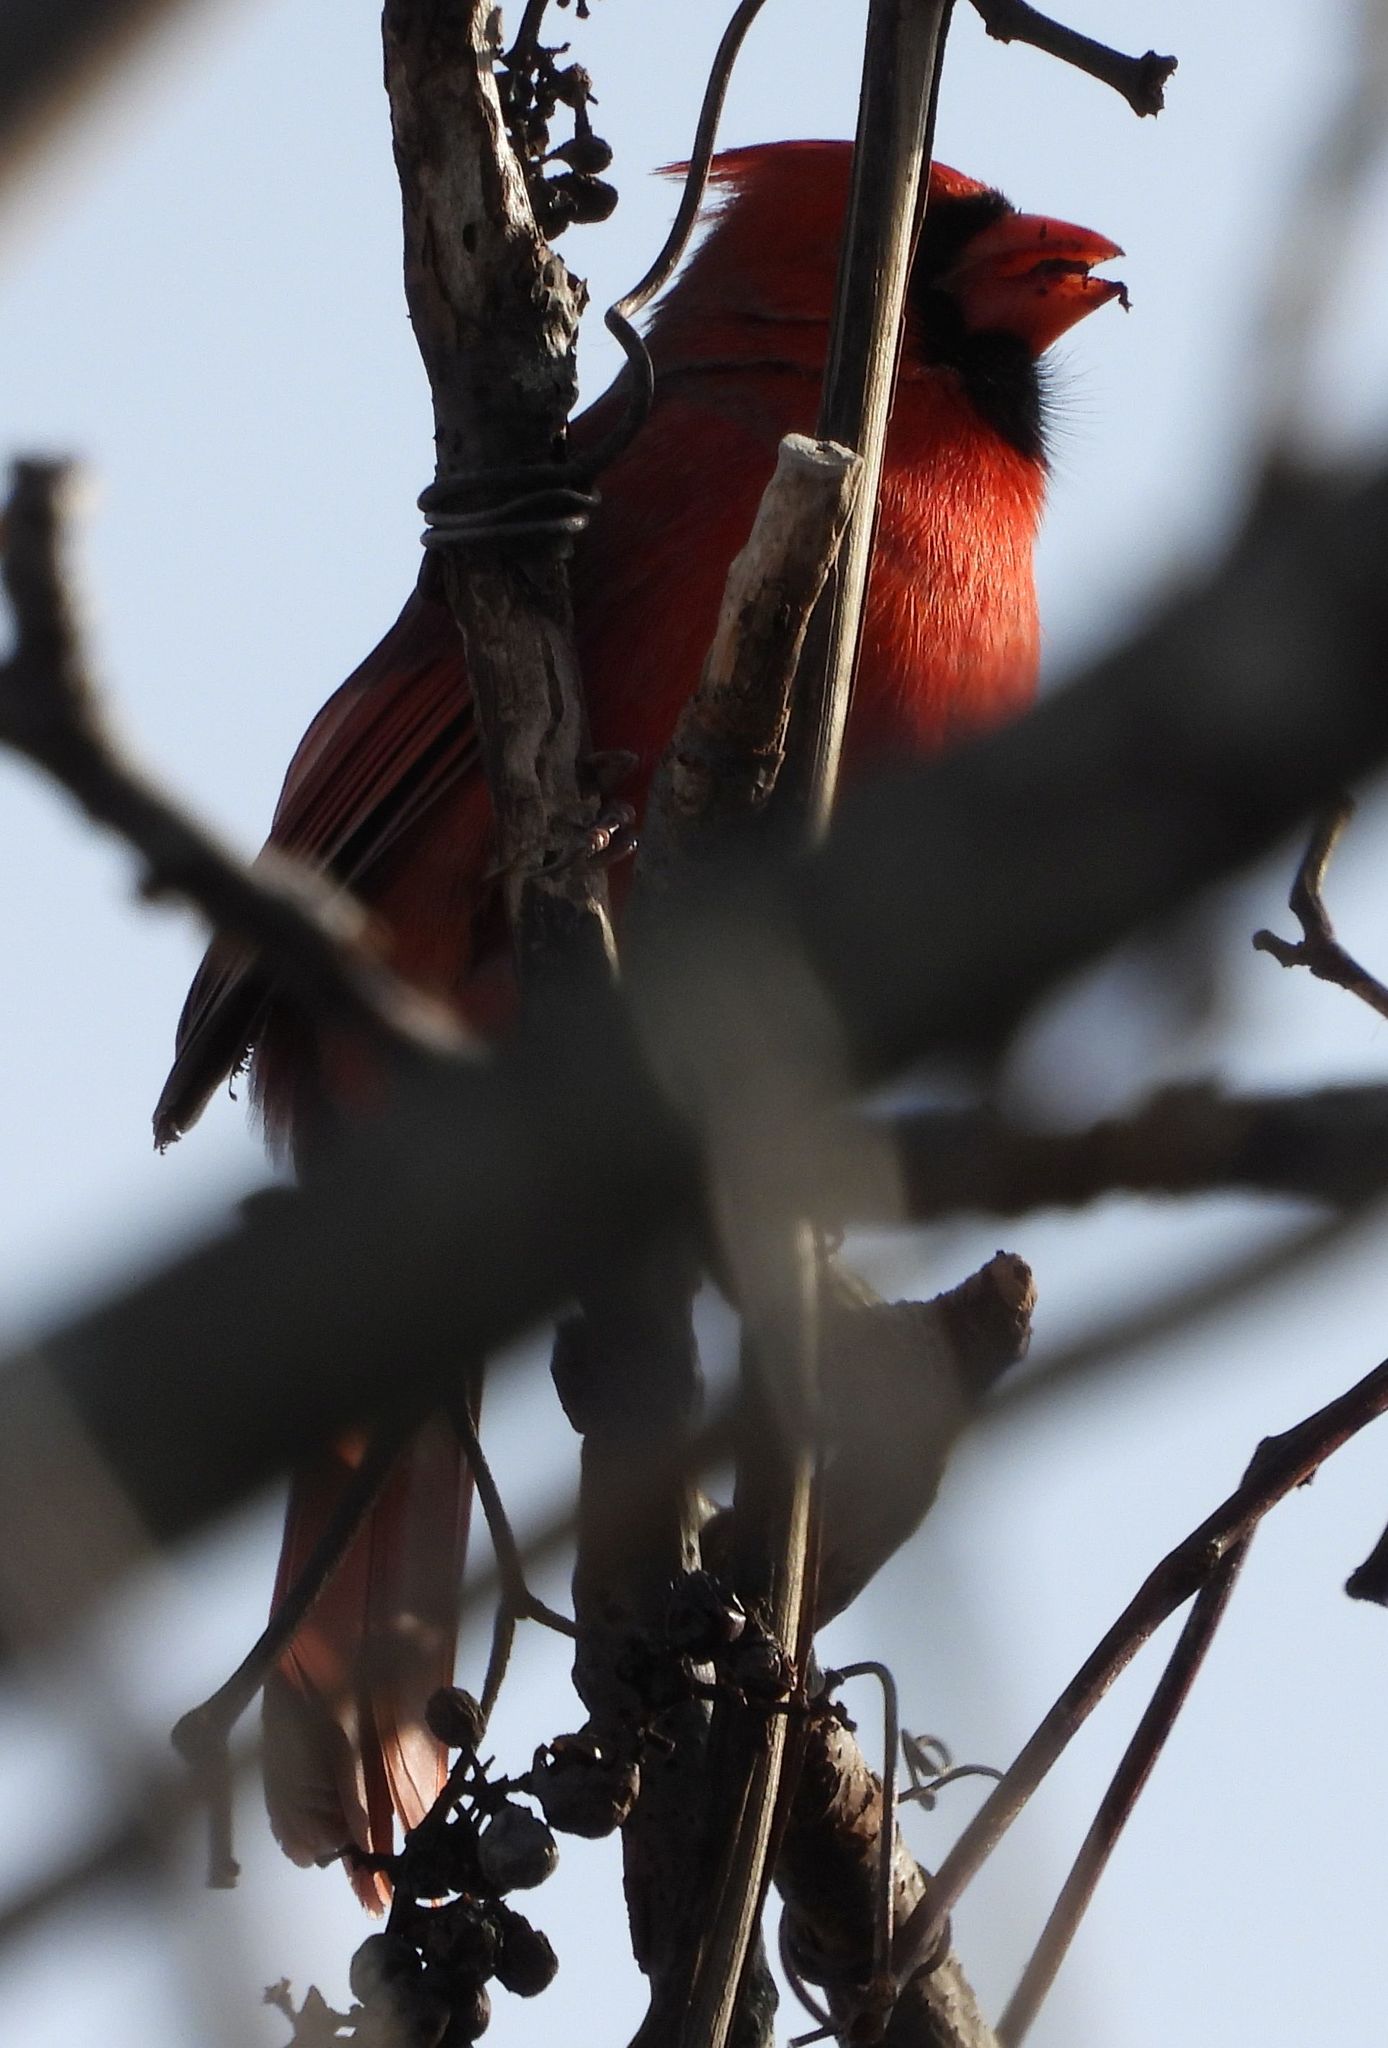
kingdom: Animalia
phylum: Chordata
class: Aves
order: Passeriformes
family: Cardinalidae
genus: Cardinalis
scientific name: Cardinalis cardinalis
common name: Northern cardinal
